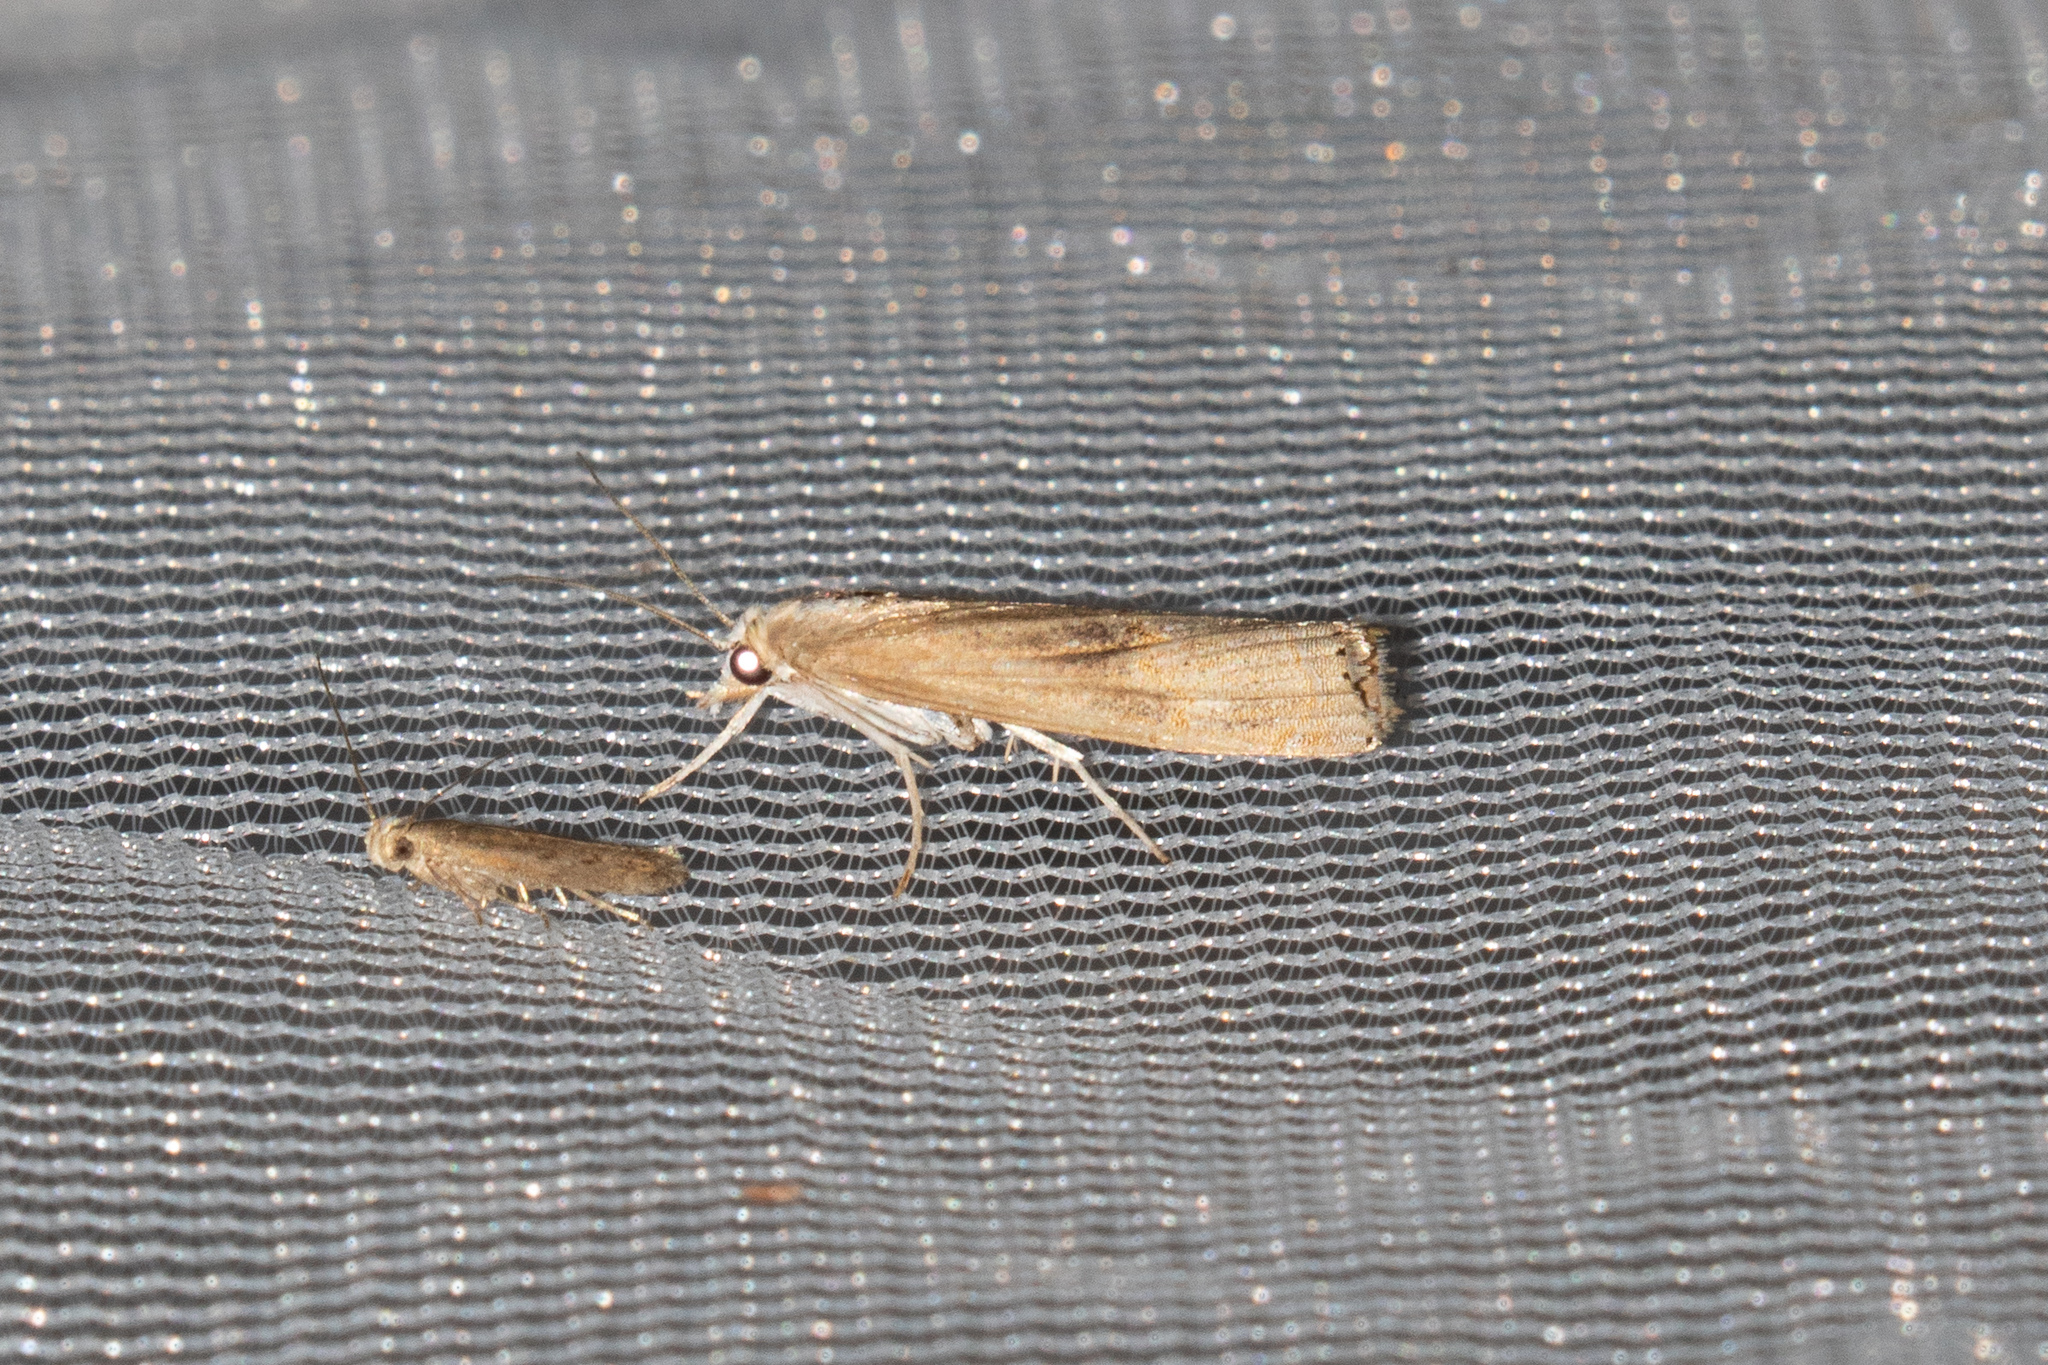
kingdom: Animalia
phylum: Arthropoda
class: Insecta
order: Lepidoptera
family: Crambidae
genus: Parapediasia
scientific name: Parapediasia teterellus
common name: Bluegrass webworm moth
